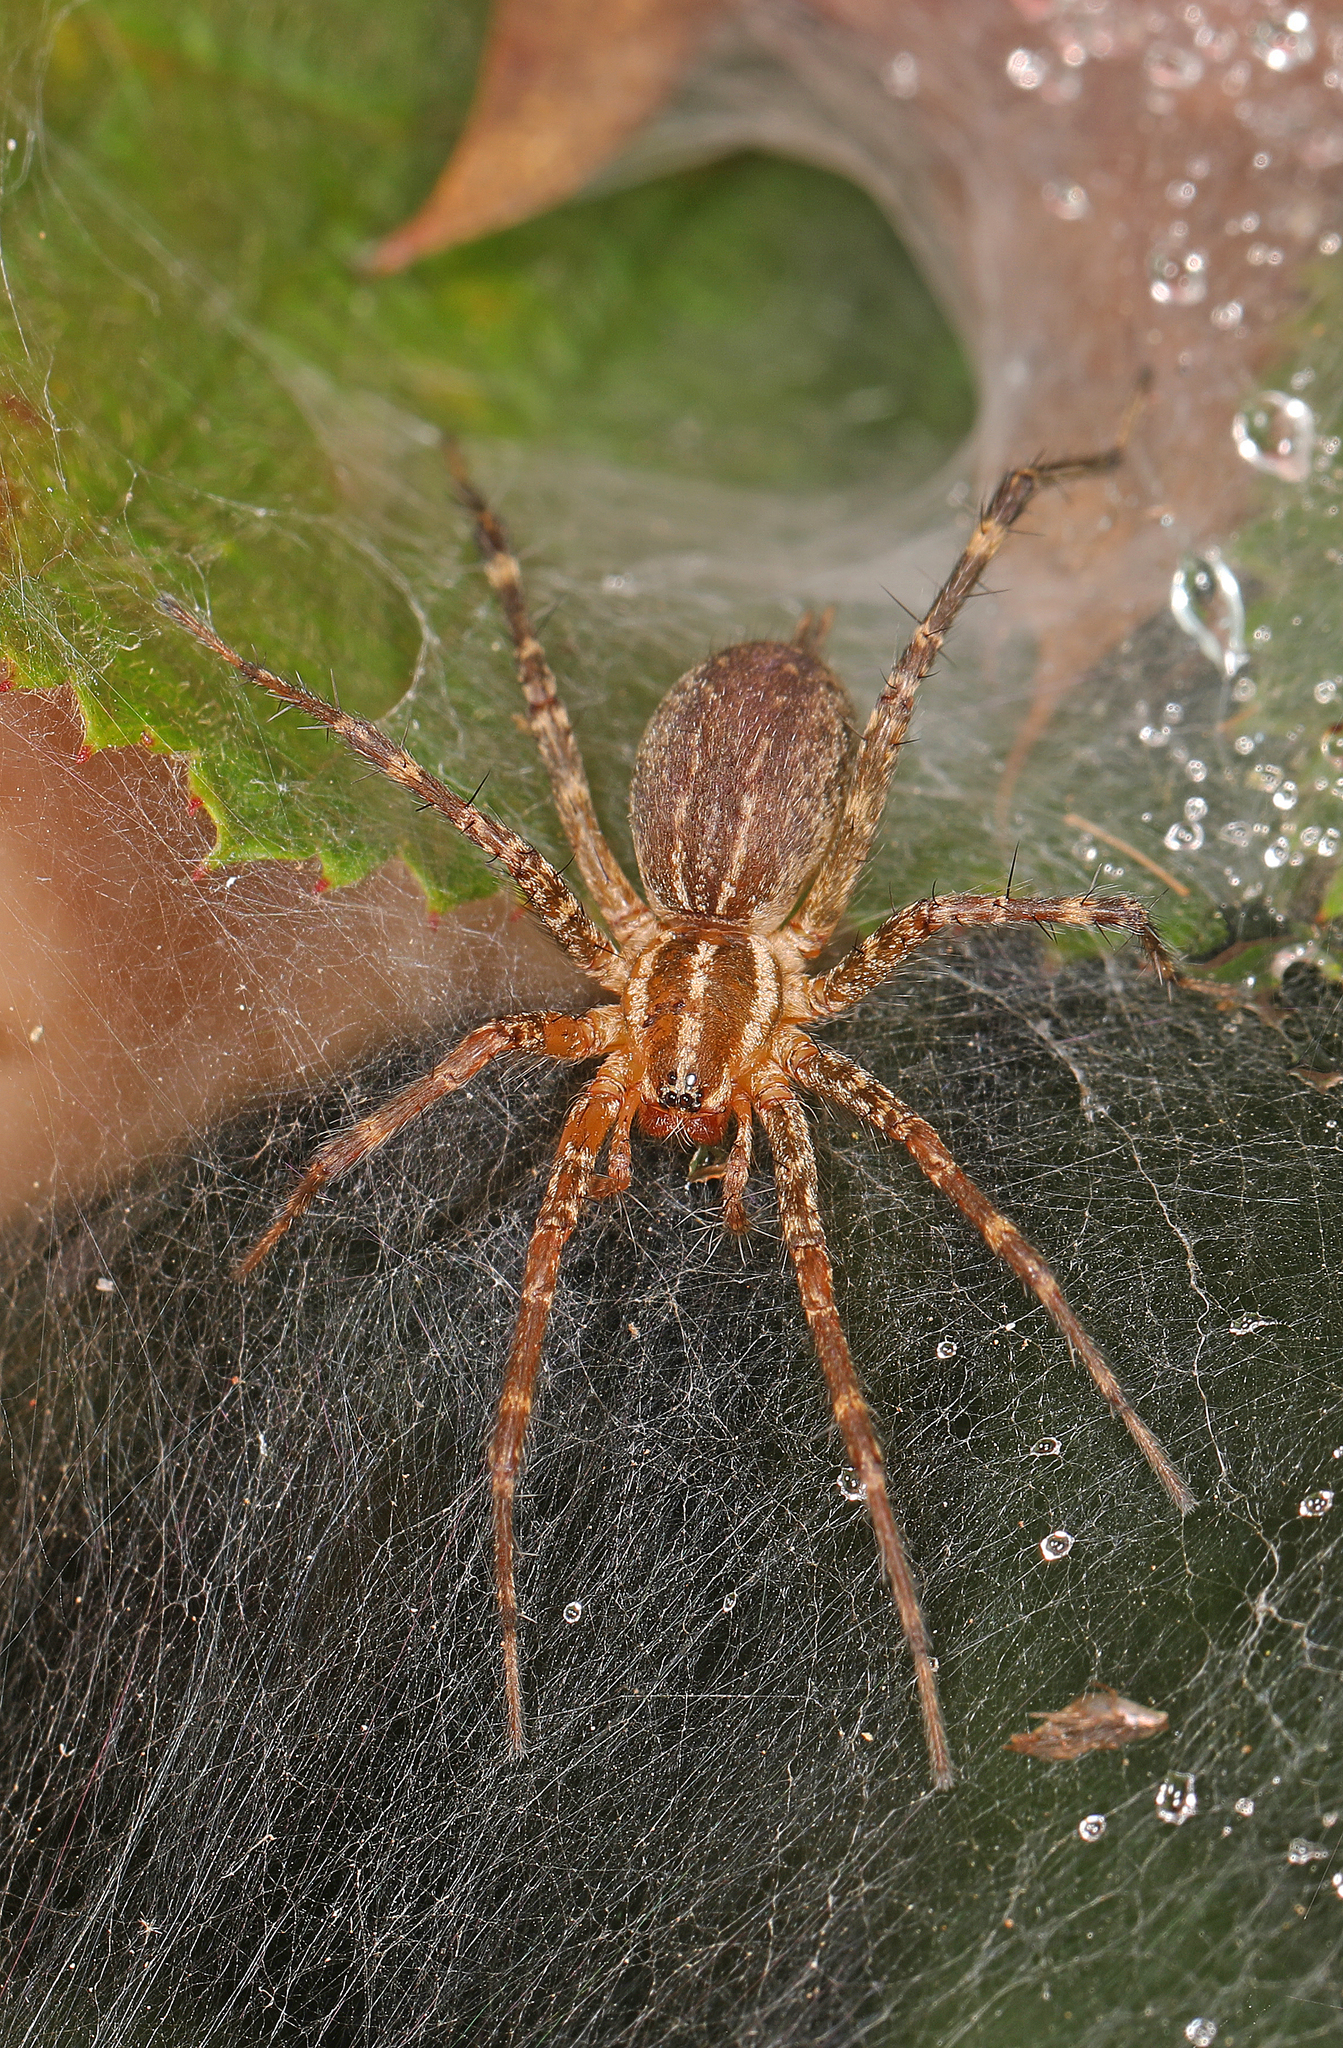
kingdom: Animalia
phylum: Arthropoda
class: Arachnida
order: Araneae
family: Agelenidae
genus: Agelenopsis
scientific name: Agelenopsis
